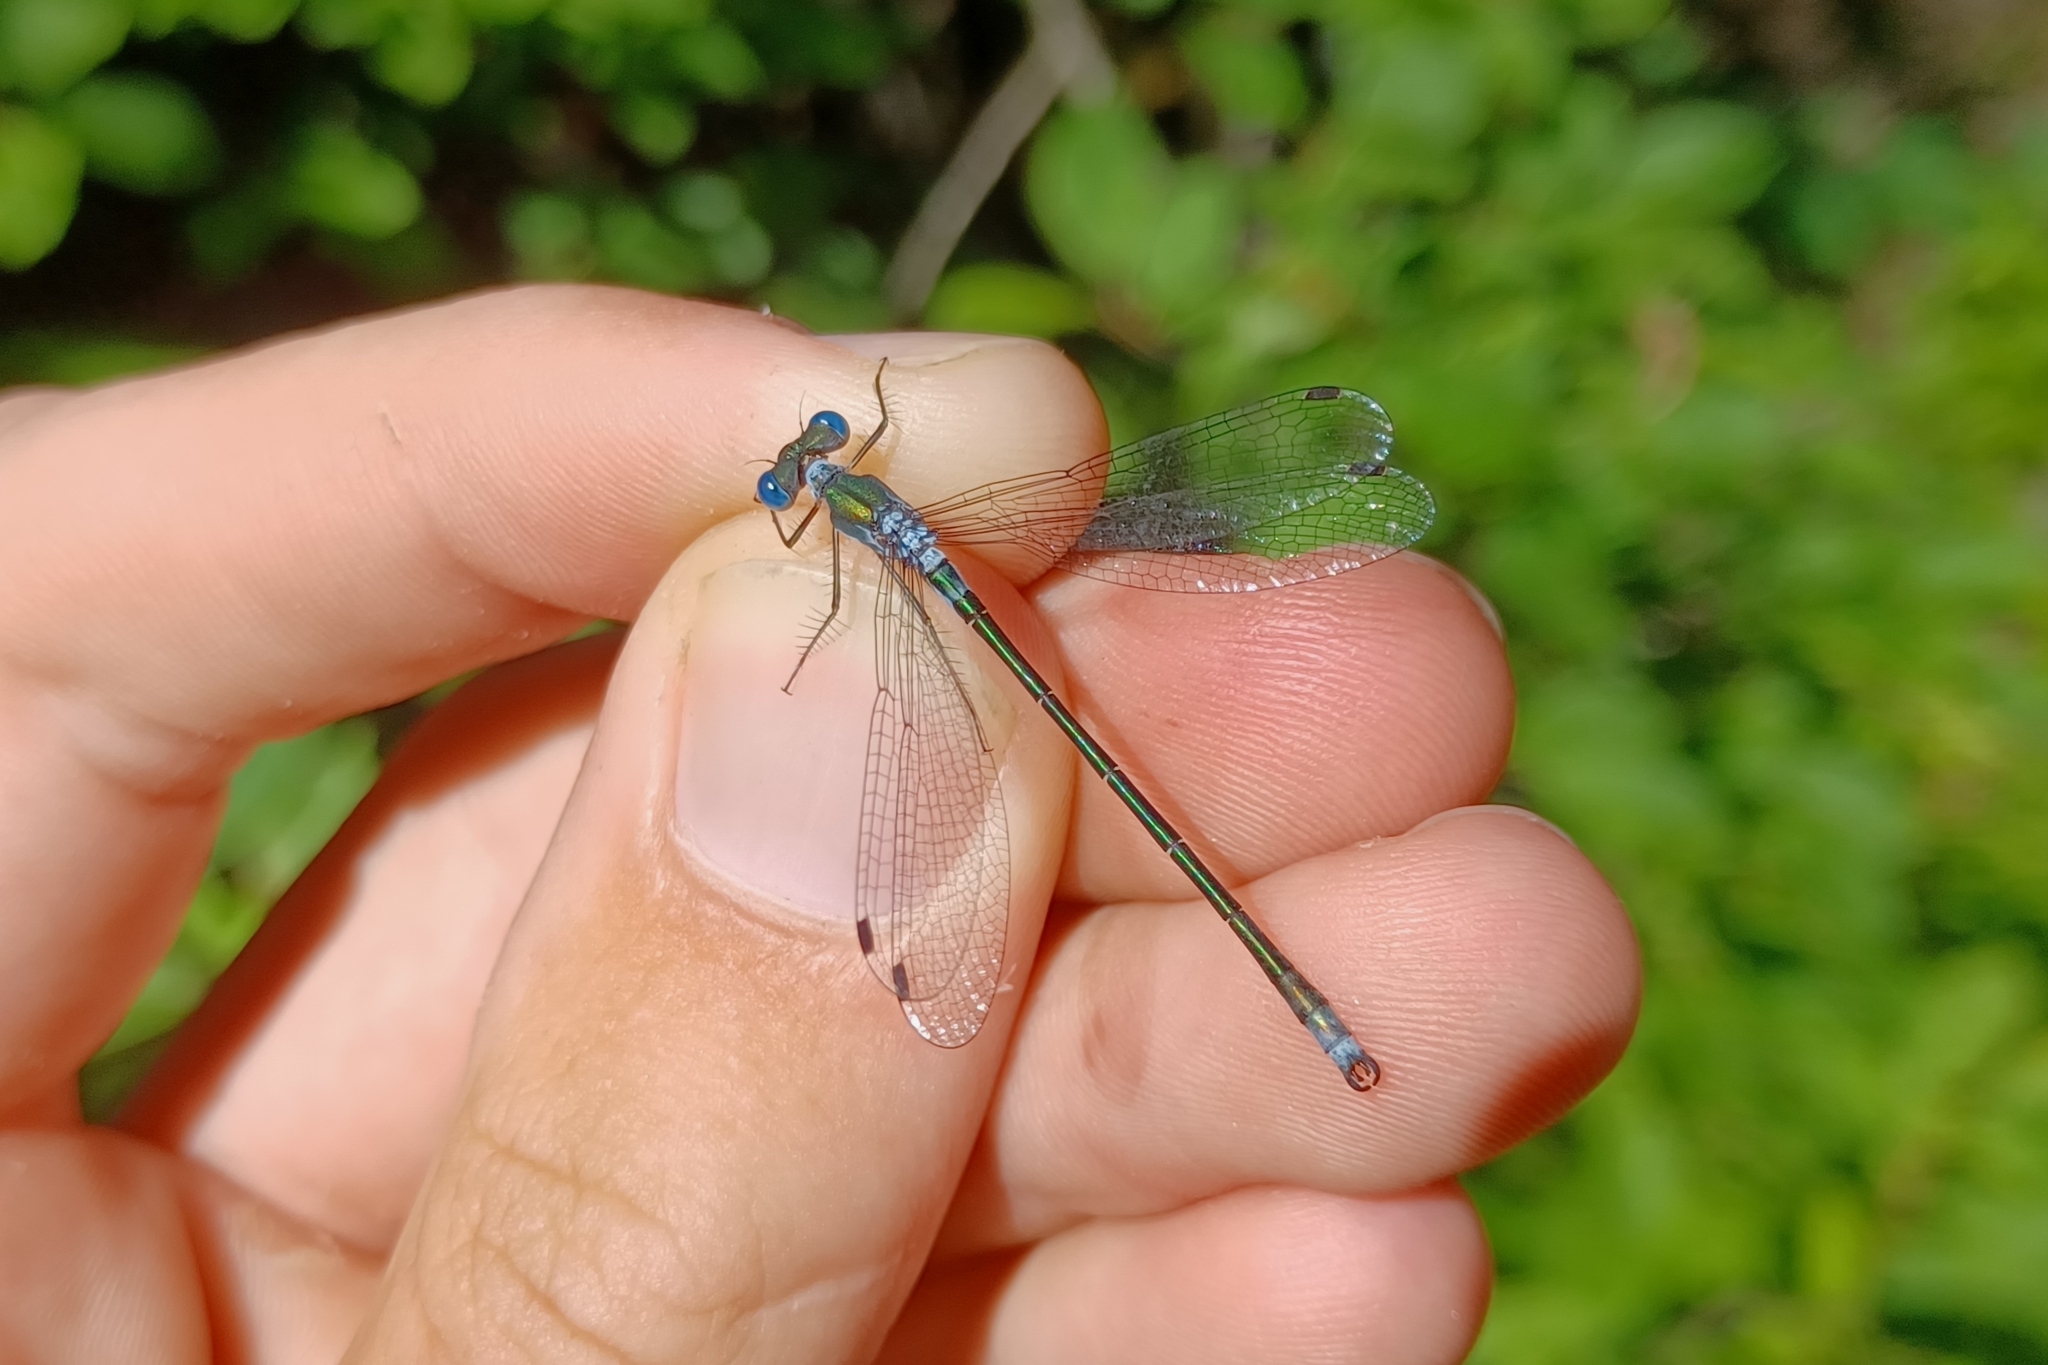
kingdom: Animalia
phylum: Arthropoda
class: Insecta
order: Odonata
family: Lestidae
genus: Lestes
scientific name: Lestes dryas
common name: Scarce emerald damselfly
